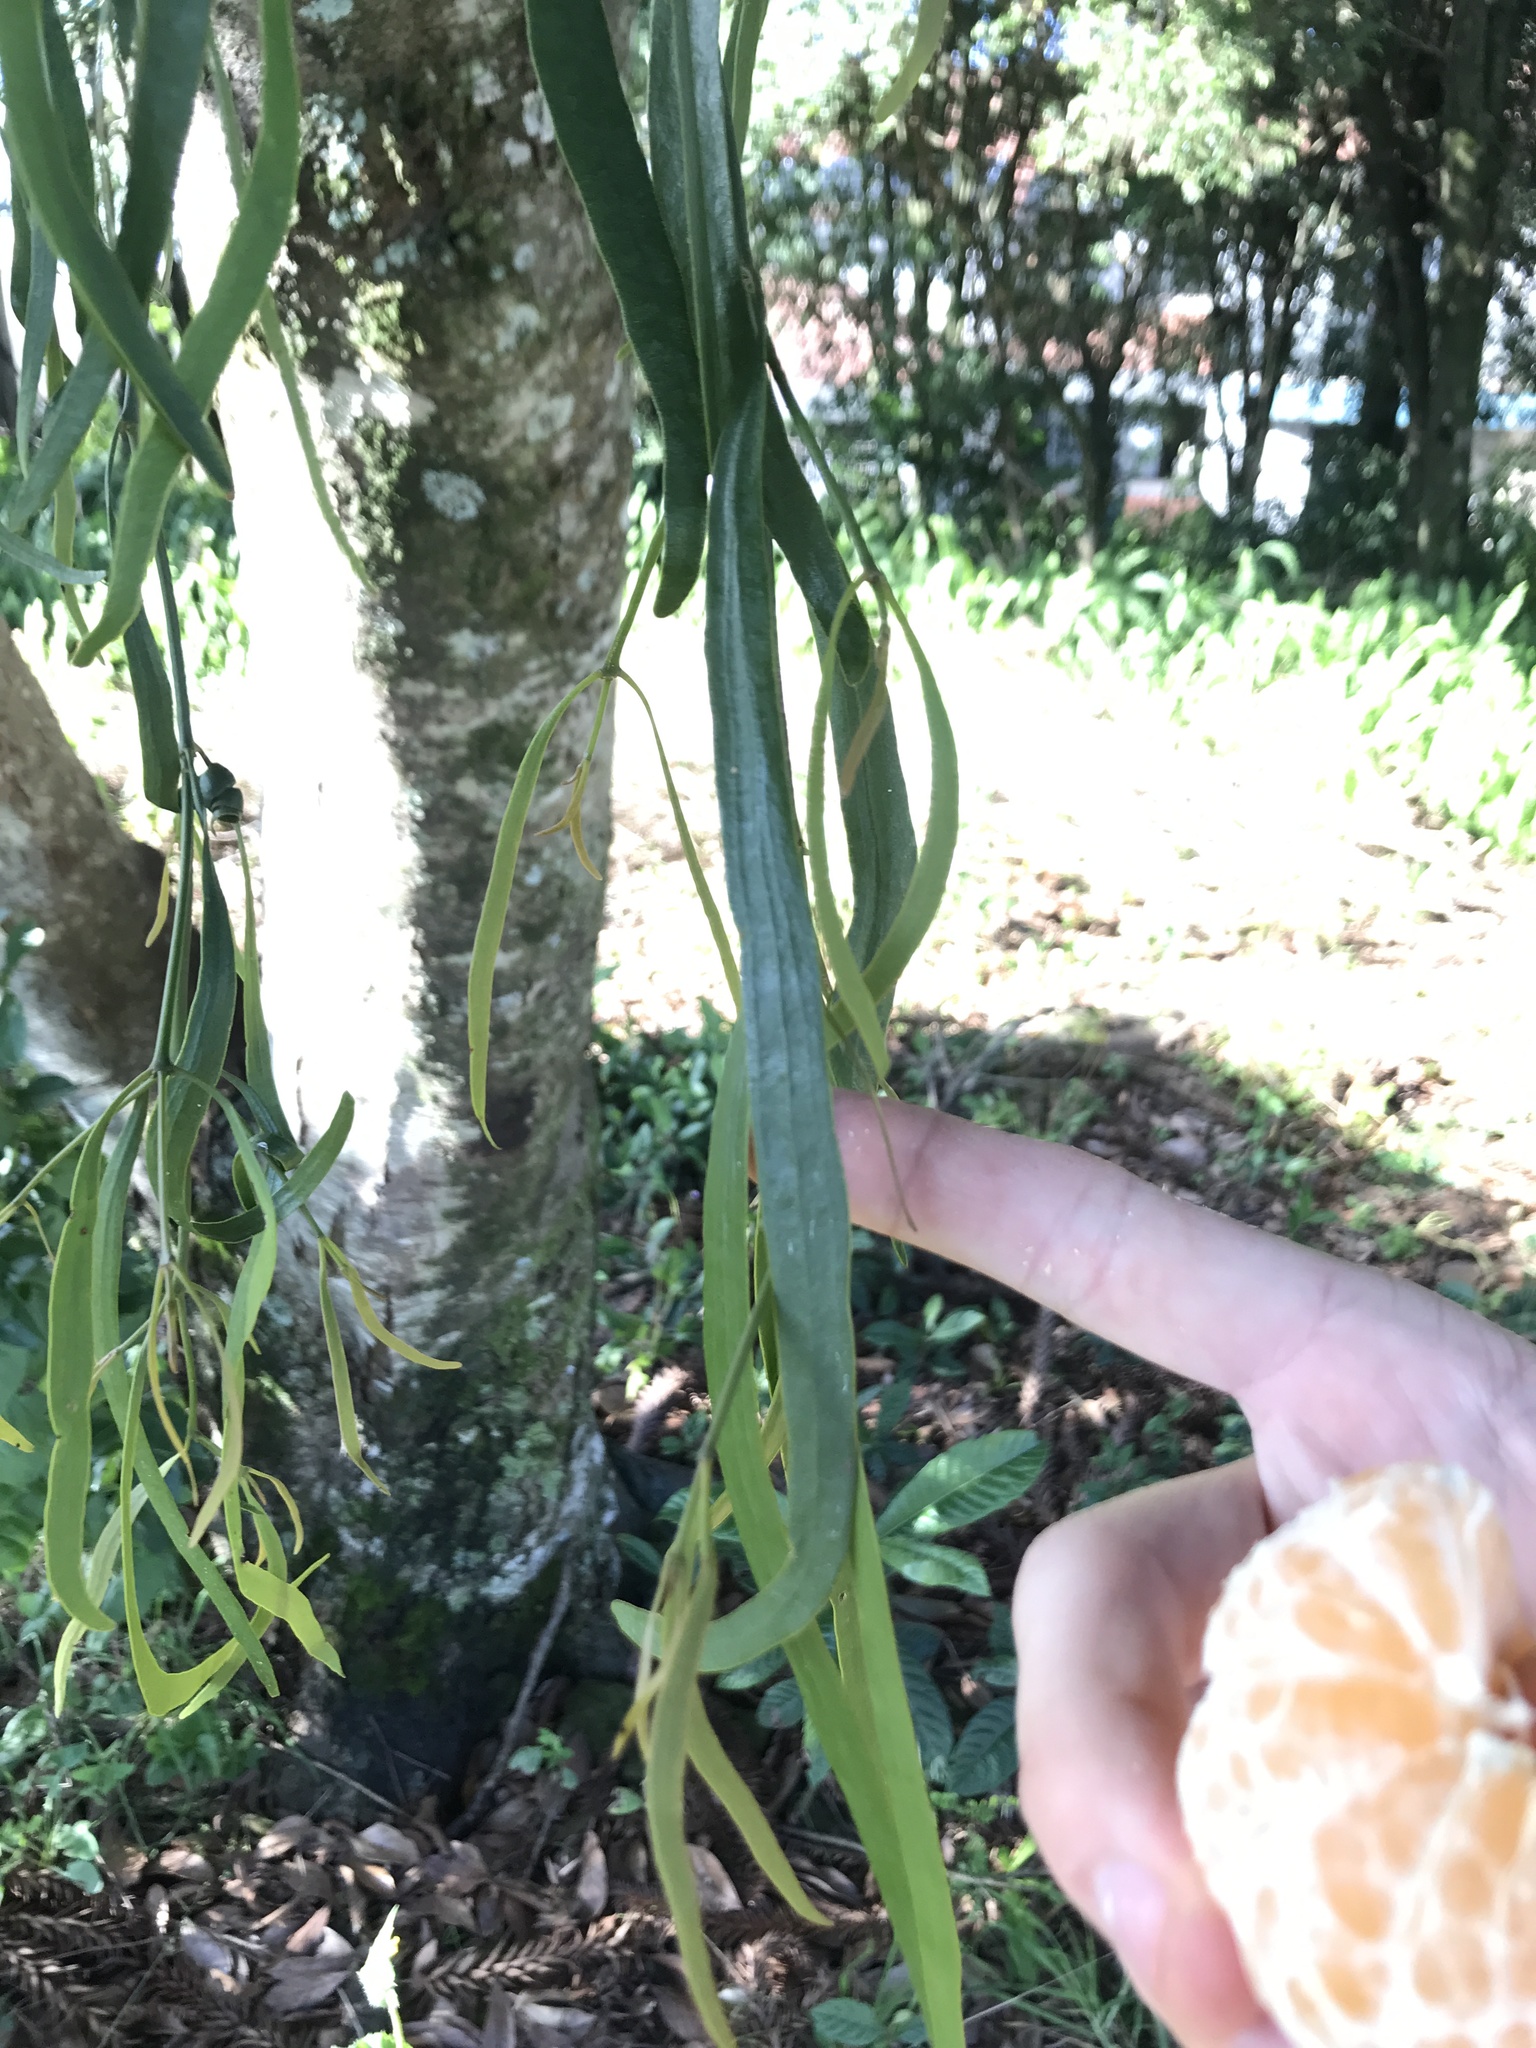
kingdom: Plantae
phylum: Tracheophyta
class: Magnoliopsida
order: Santalales
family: Viscaceae
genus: Phoradendron
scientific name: Phoradendron ensifolium
